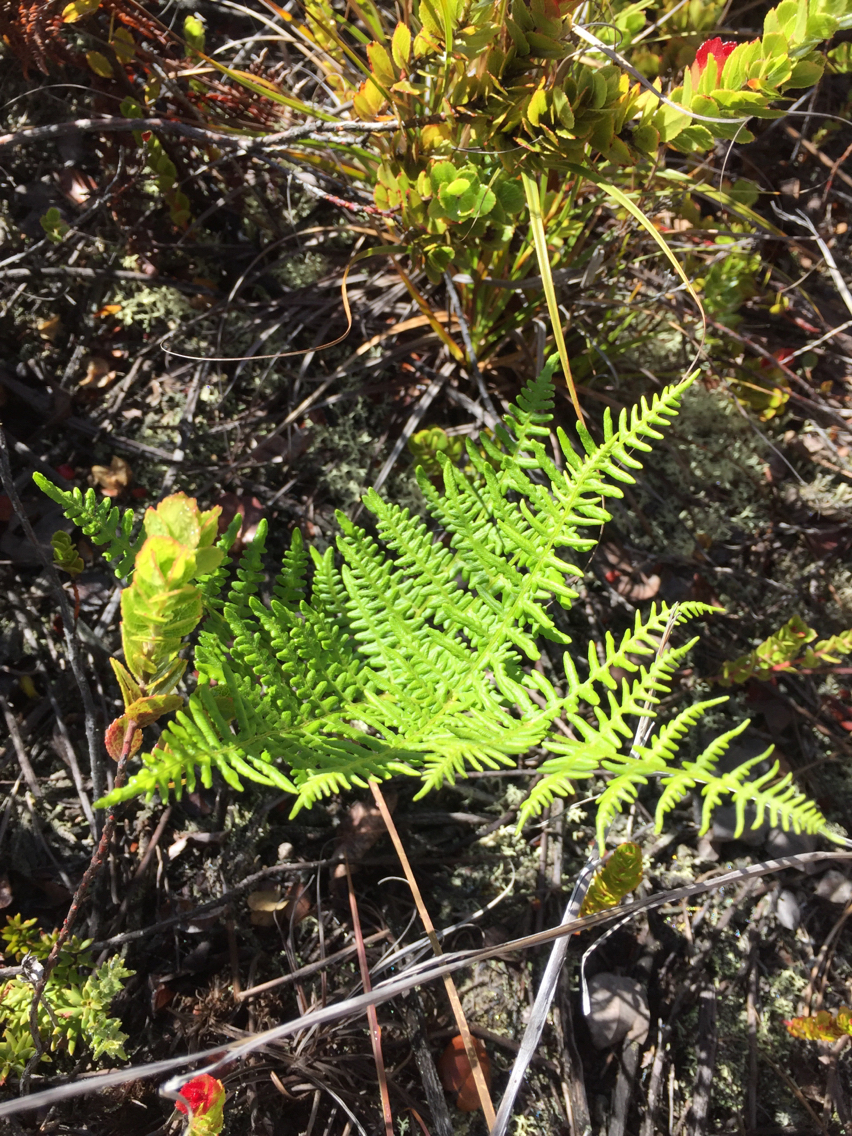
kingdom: Plantae
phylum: Tracheophyta
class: Polypodiopsida
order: Polypodiales
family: Dennstaedtiaceae
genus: Pteridium
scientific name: Pteridium aquilinum
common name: Bracken
